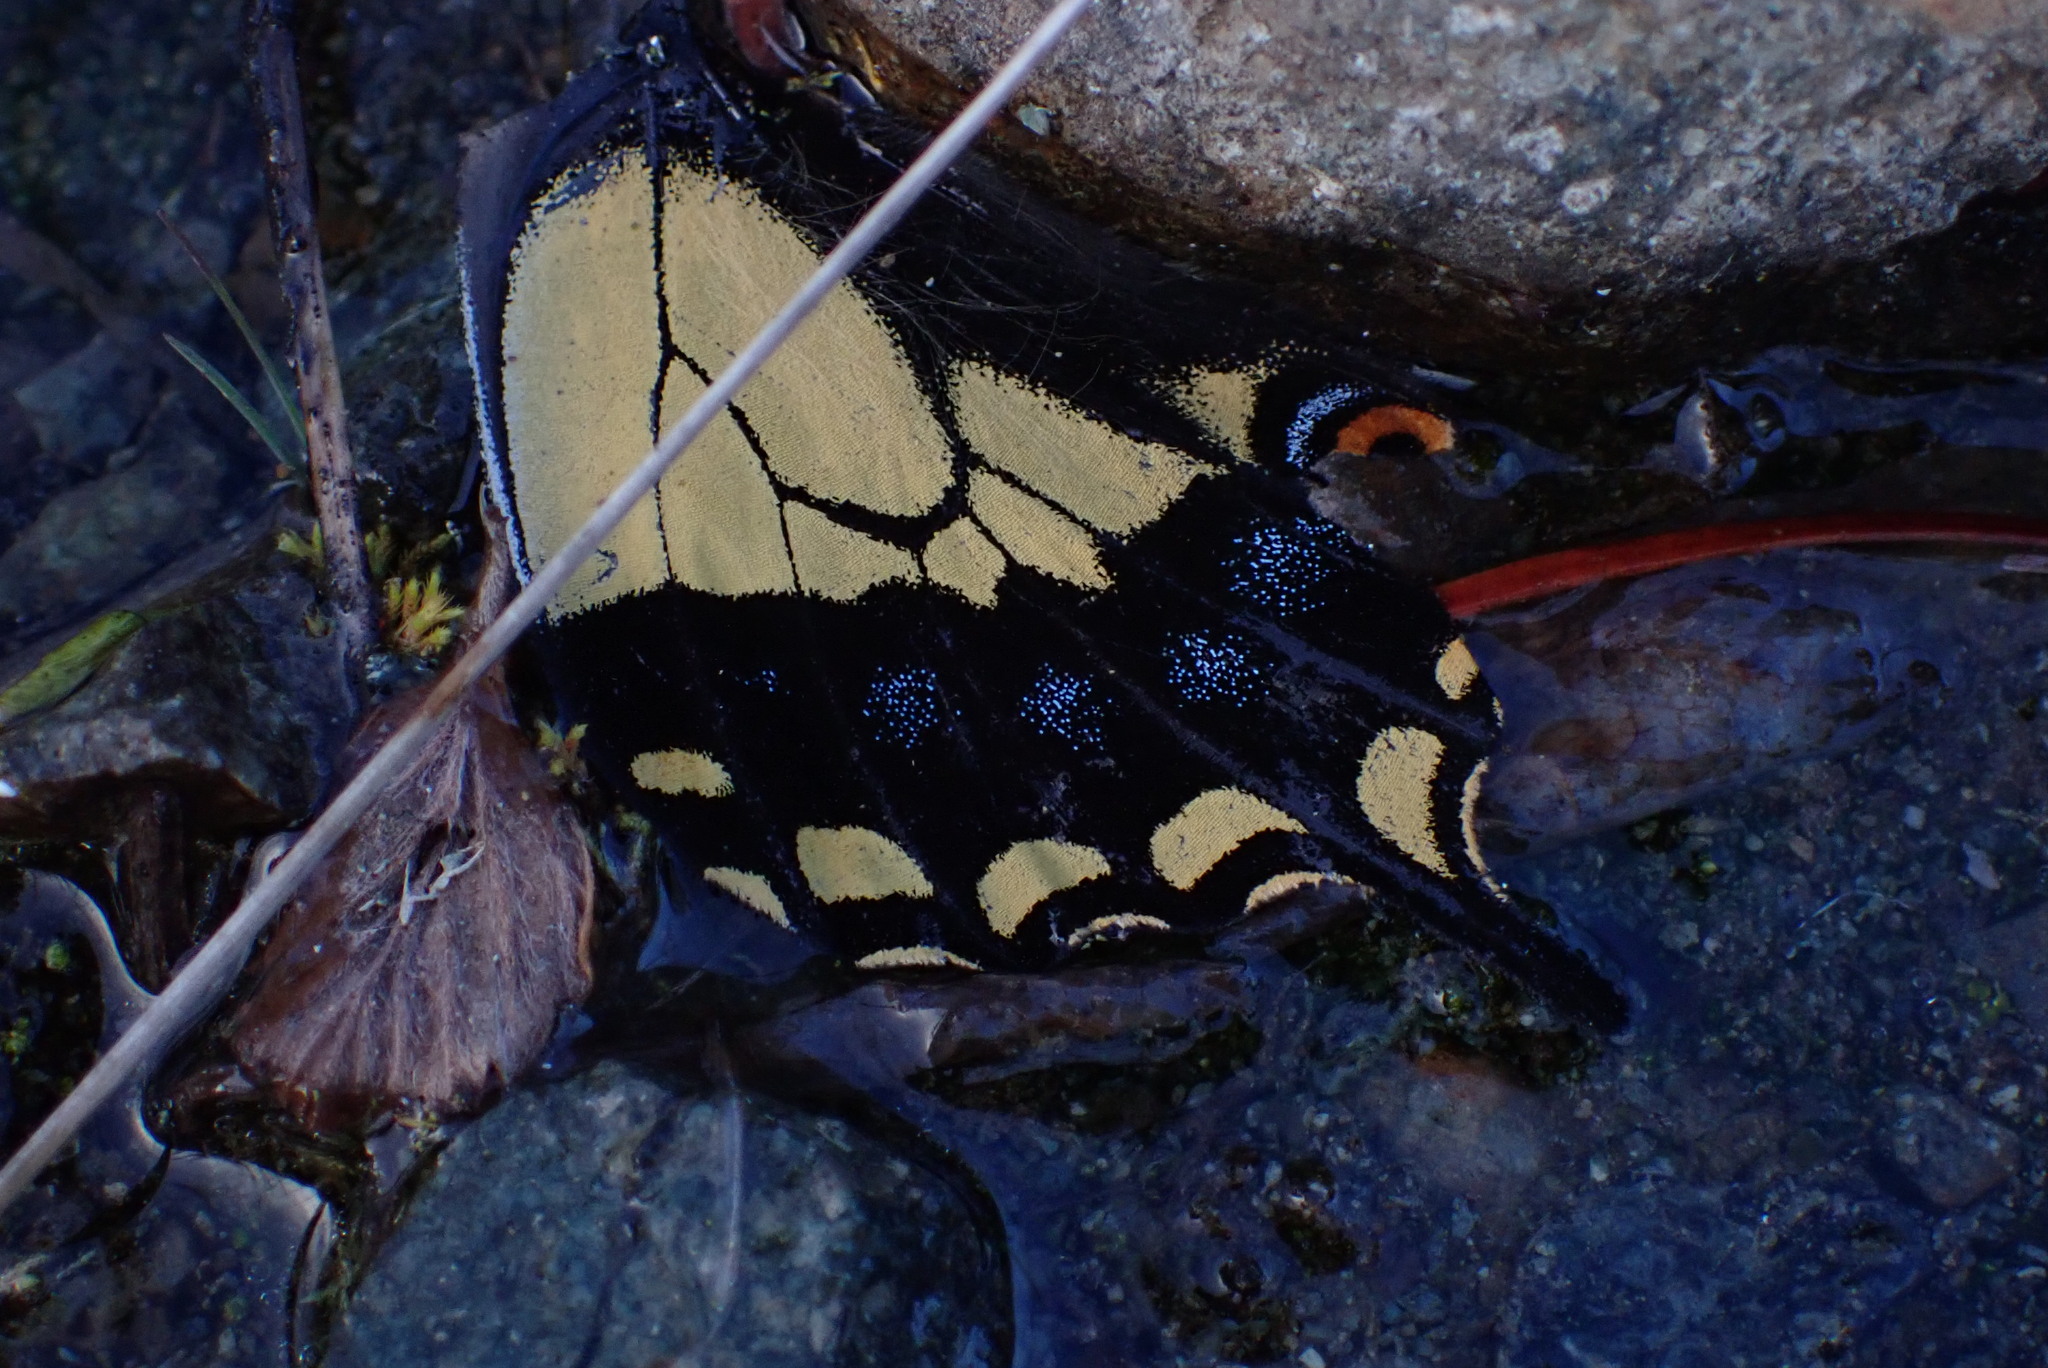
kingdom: Animalia
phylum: Arthropoda
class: Insecta
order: Lepidoptera
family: Papilionidae
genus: Papilio
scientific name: Papilio zelicaon
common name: Anise swallowtail
